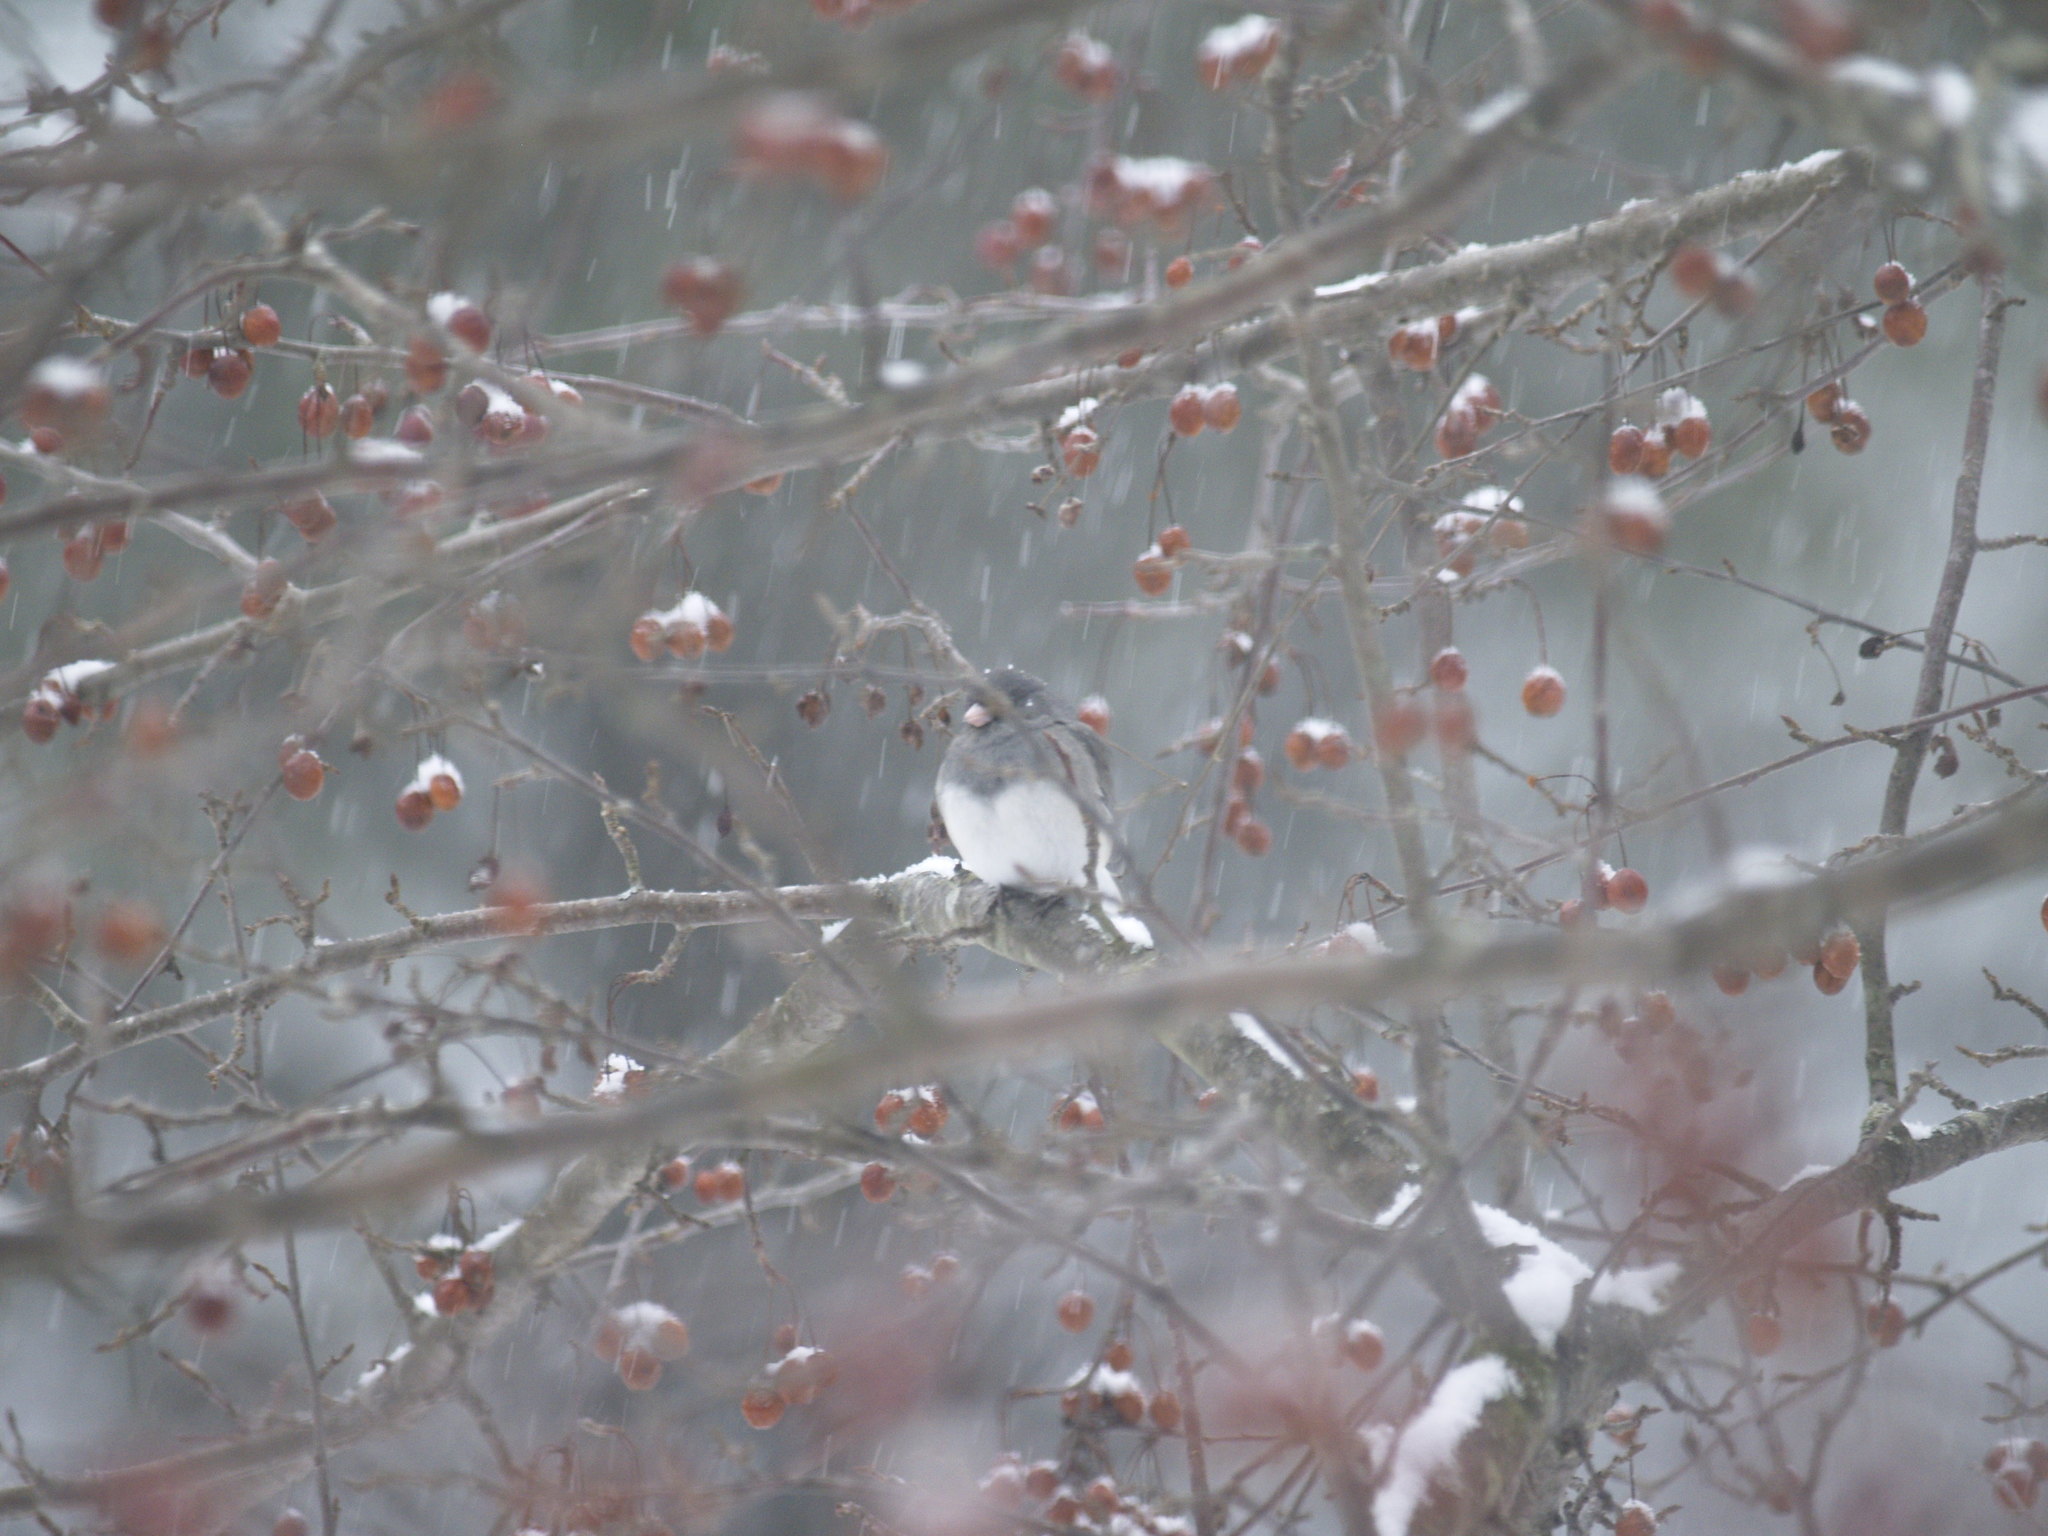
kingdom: Animalia
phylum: Chordata
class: Aves
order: Passeriformes
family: Passerellidae
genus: Junco
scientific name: Junco hyemalis
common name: Dark-eyed junco
